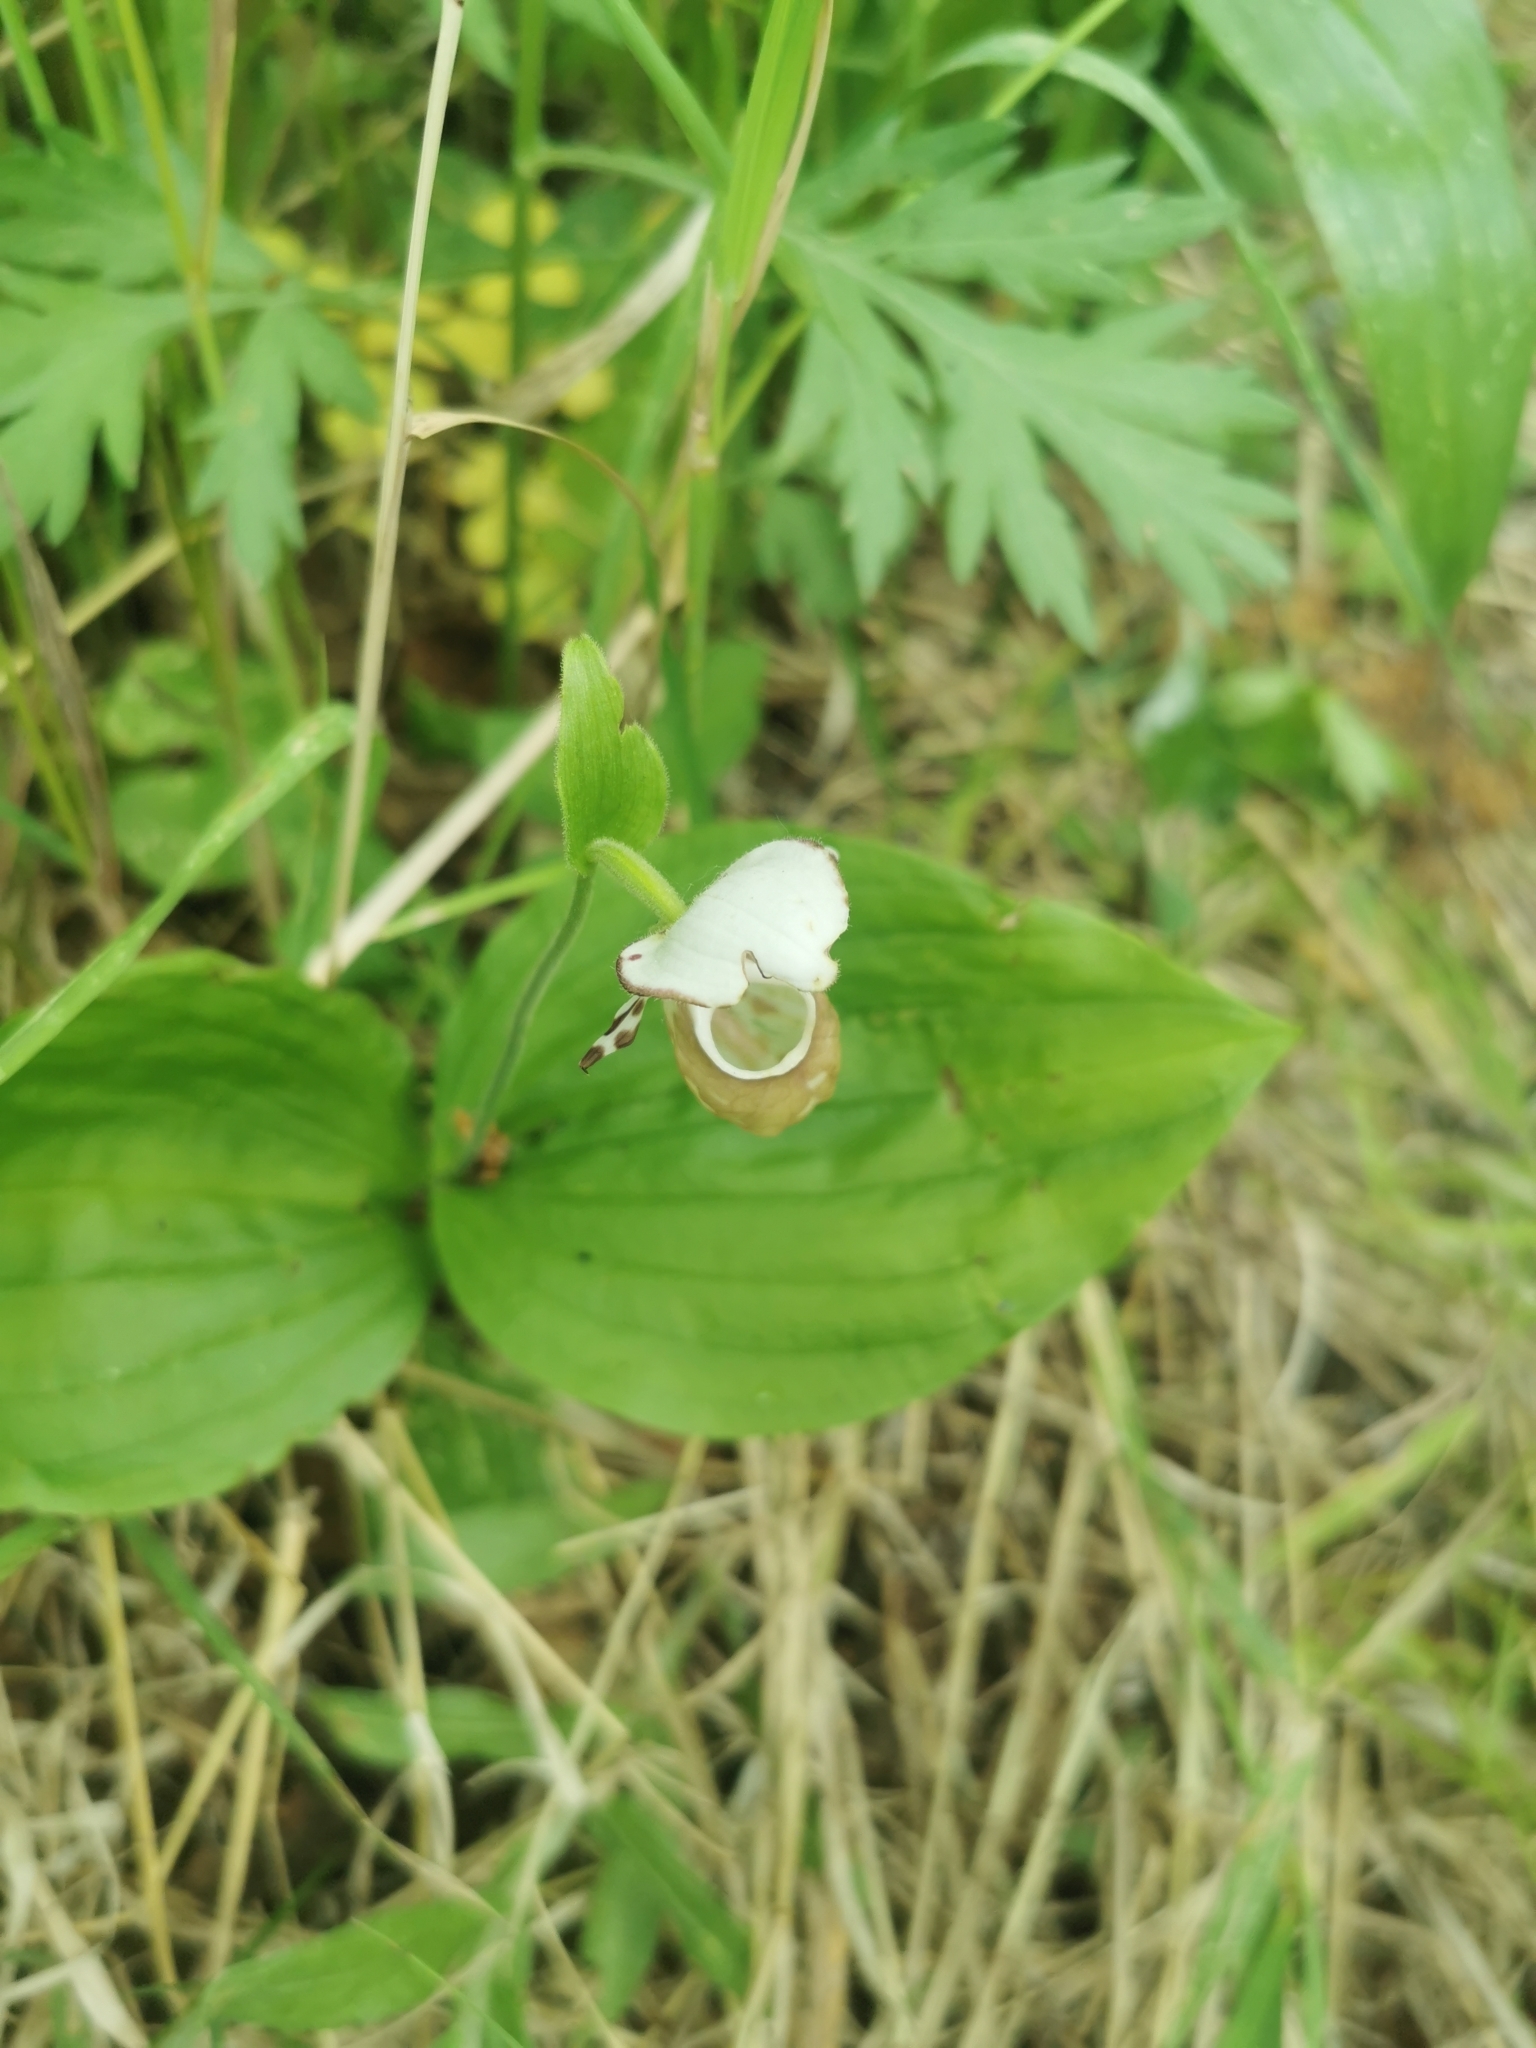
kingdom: Plantae
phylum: Tracheophyta
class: Liliopsida
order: Asparagales
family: Orchidaceae
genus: Cypripedium
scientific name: Cypripedium yatabeanum
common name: Spotted lady's slipper
